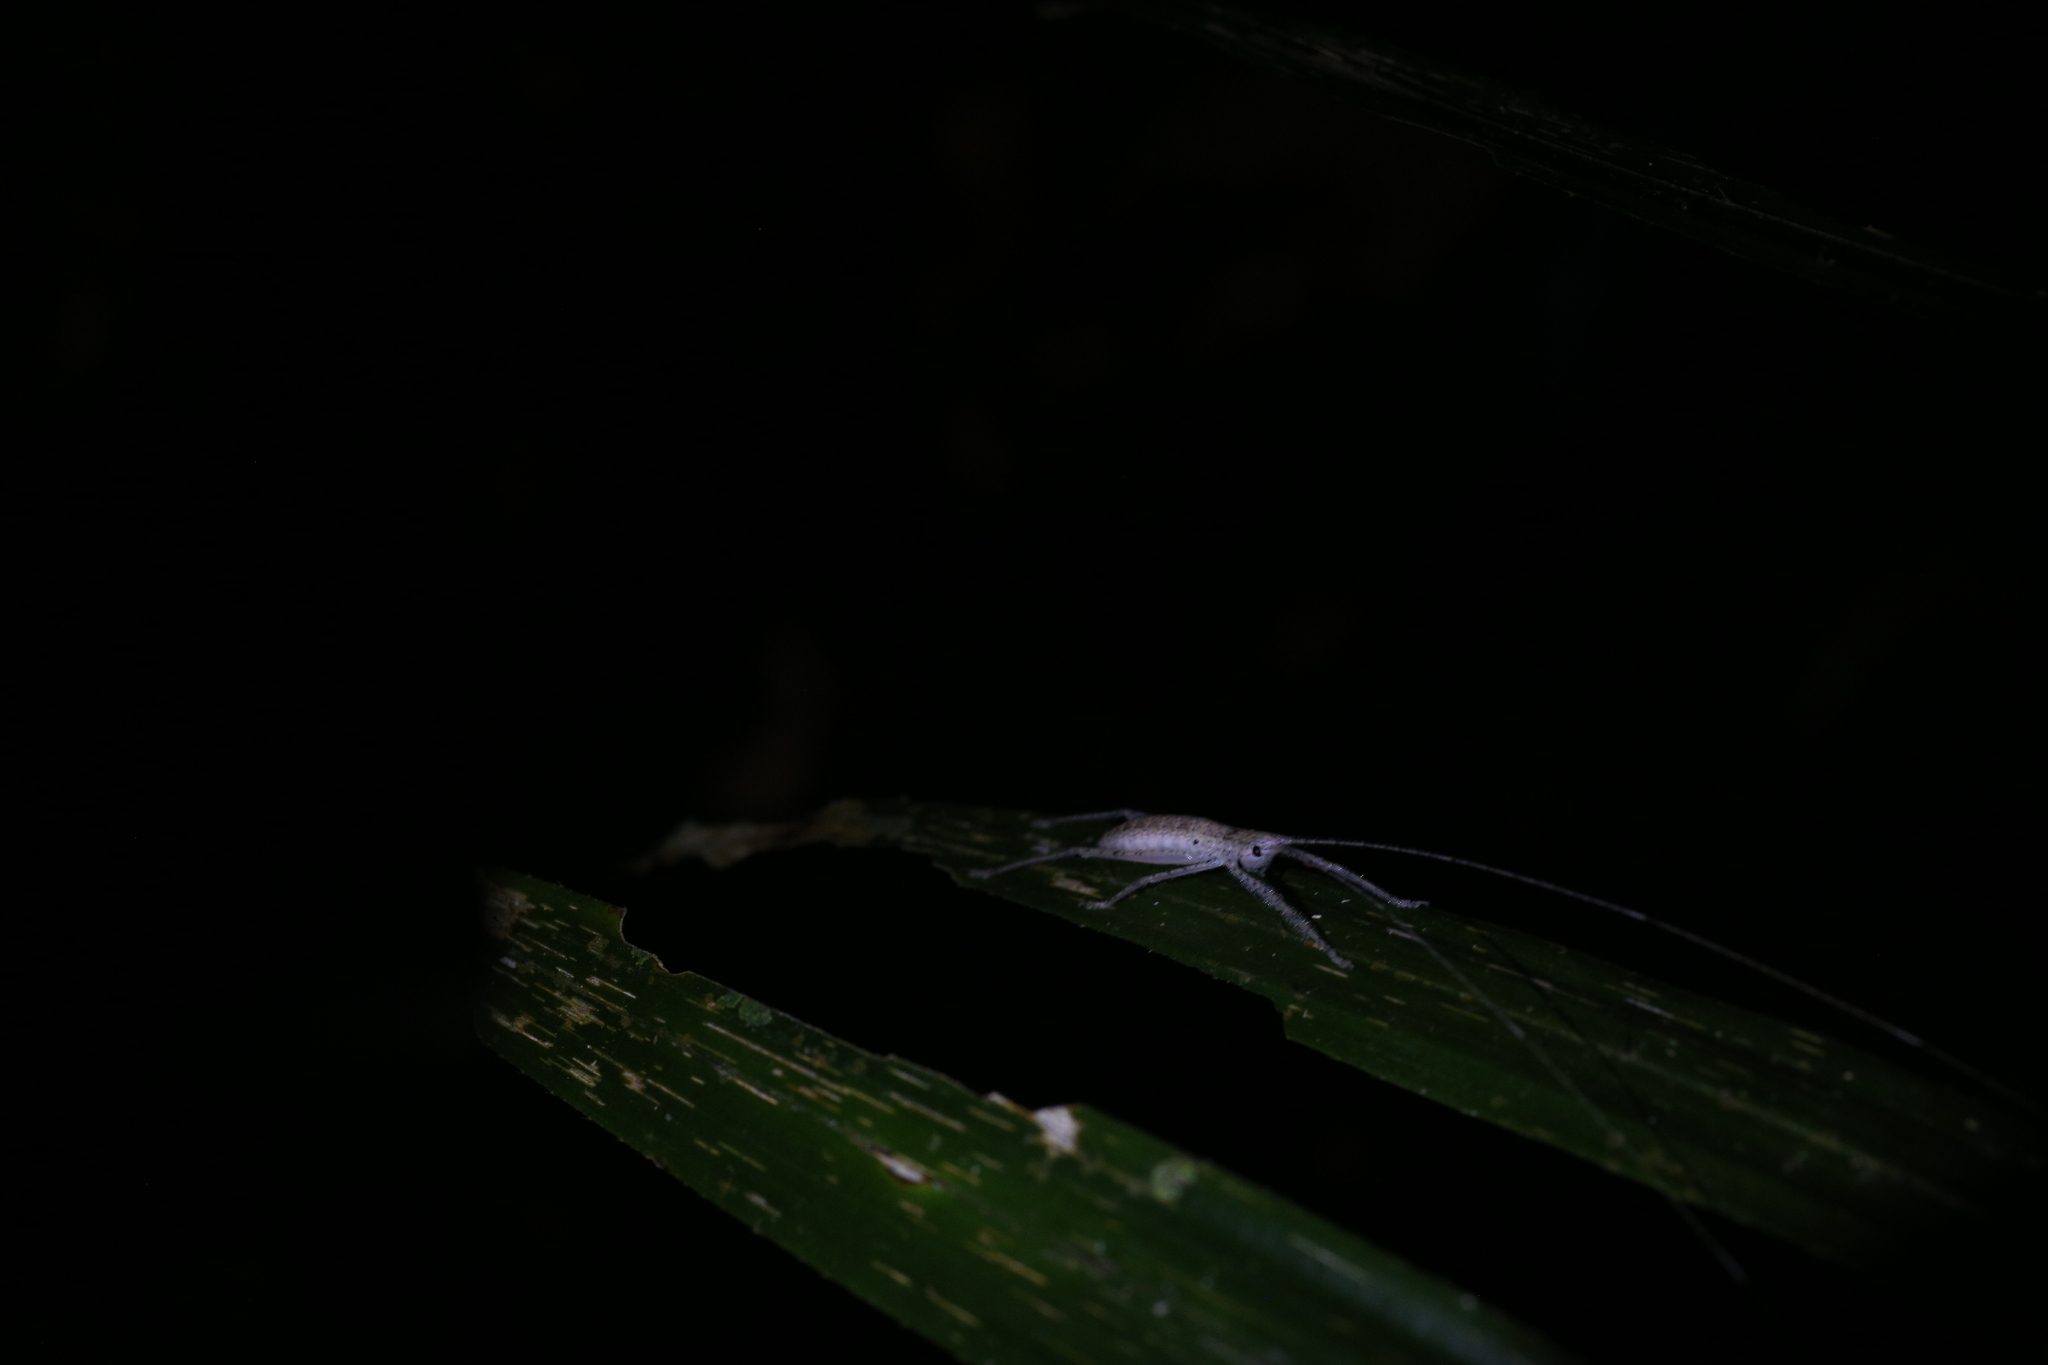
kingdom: Animalia
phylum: Arthropoda
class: Insecta
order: Orthoptera
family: Tettigoniidae
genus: Segestidea
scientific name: Segestidea queenslandica
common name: Queensland palm katydid
